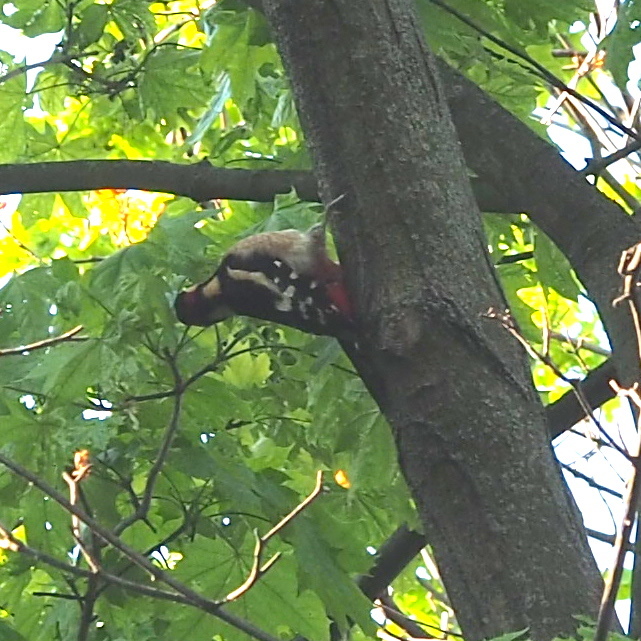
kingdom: Animalia
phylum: Chordata
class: Aves
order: Piciformes
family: Picidae
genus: Dendrocopos
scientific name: Dendrocopos major
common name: Great spotted woodpecker
